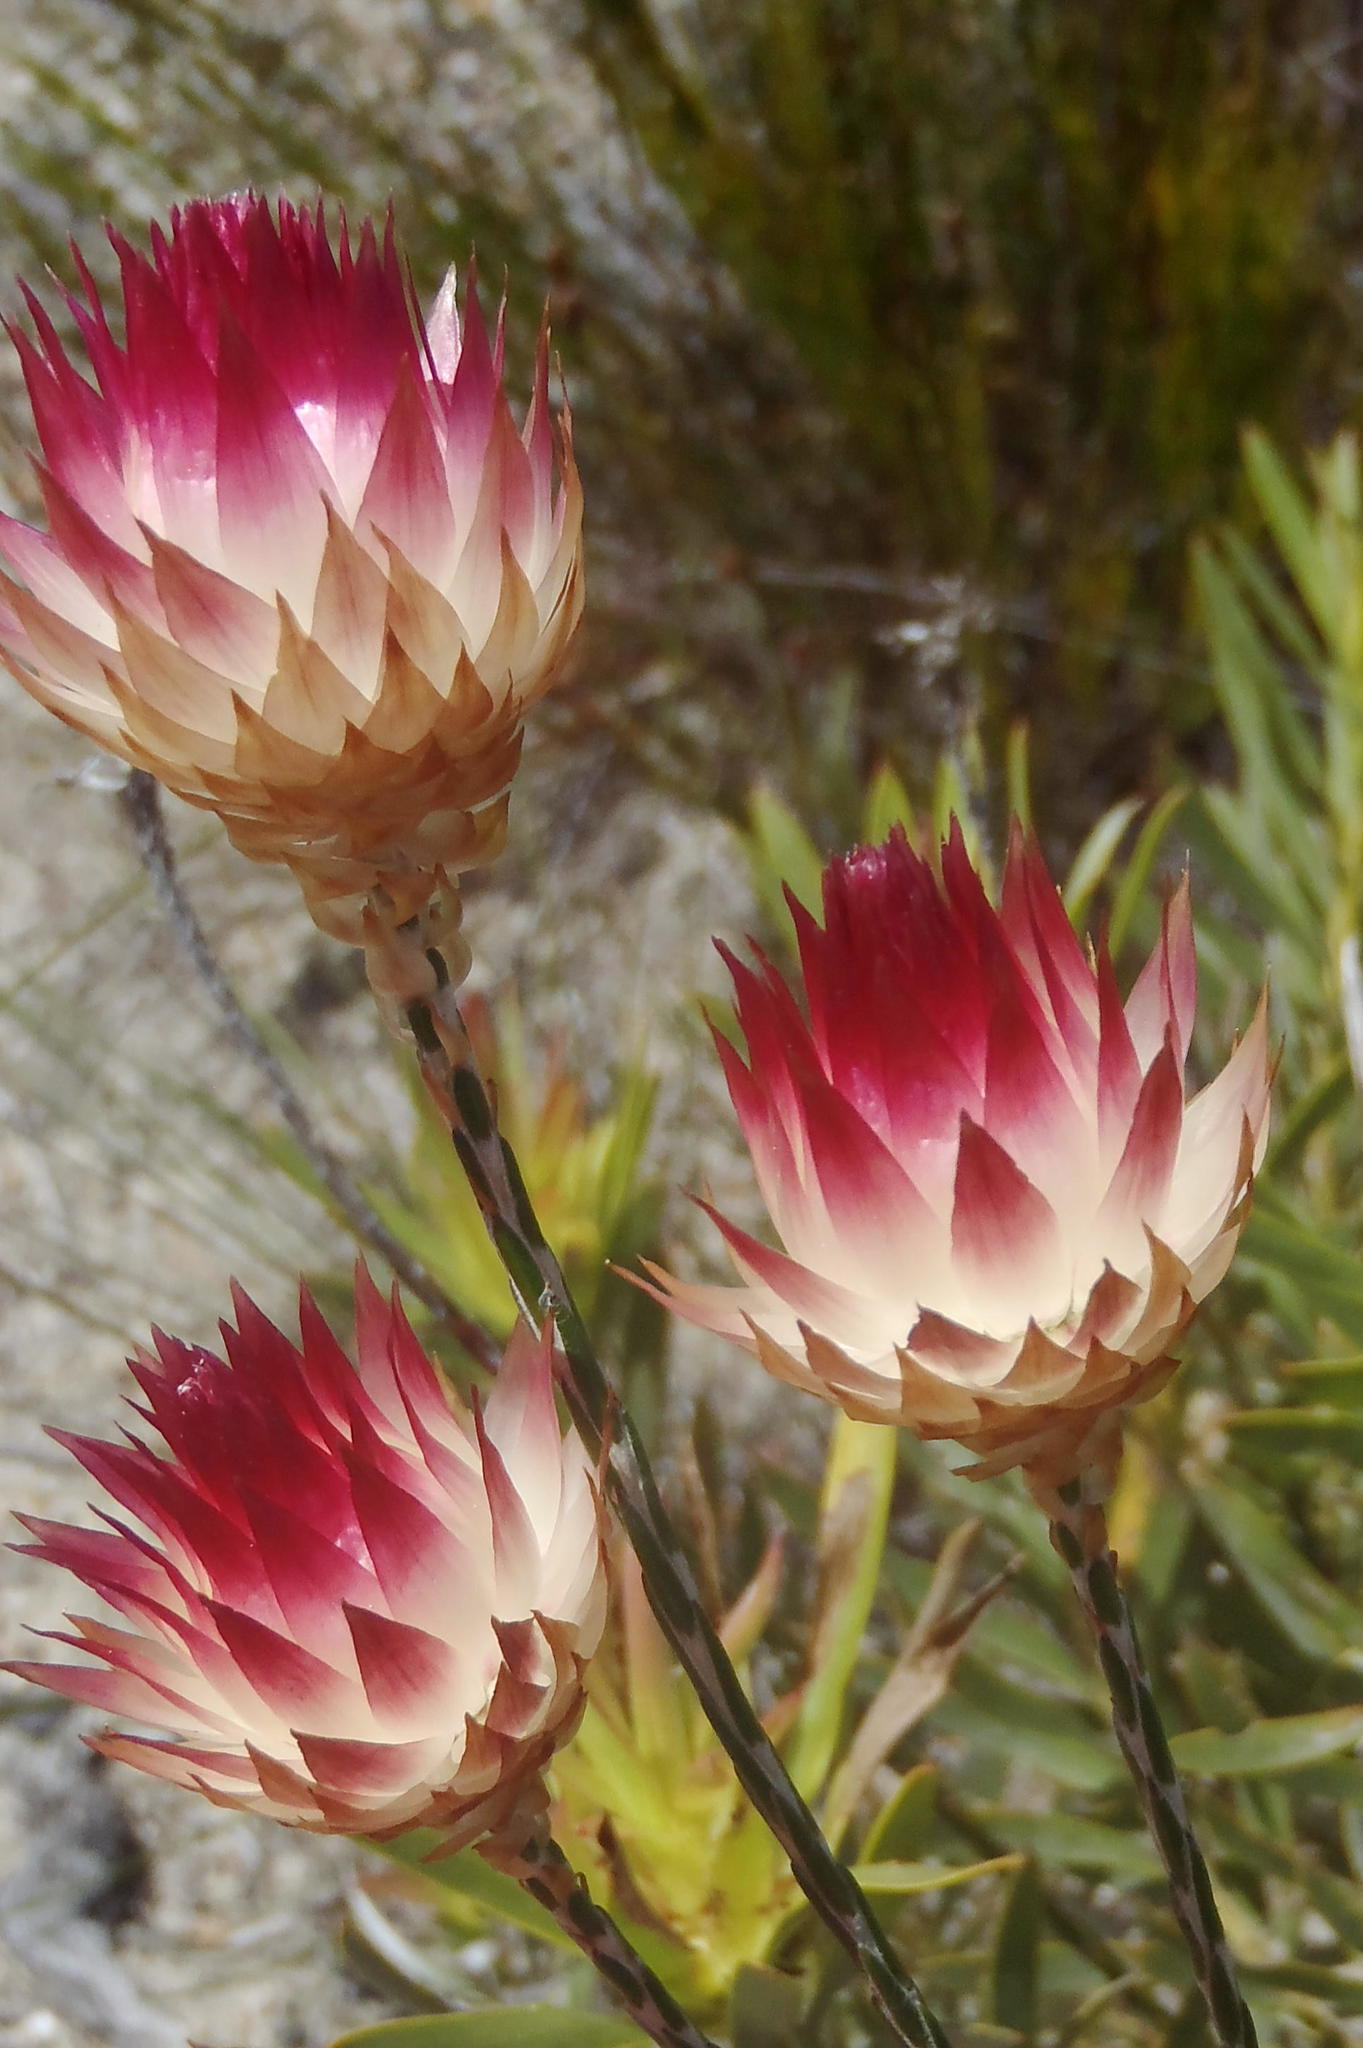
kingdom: Plantae
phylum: Tracheophyta
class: Magnoliopsida
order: Asterales
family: Asteraceae
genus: Edmondia
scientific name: Edmondia sesamoides
